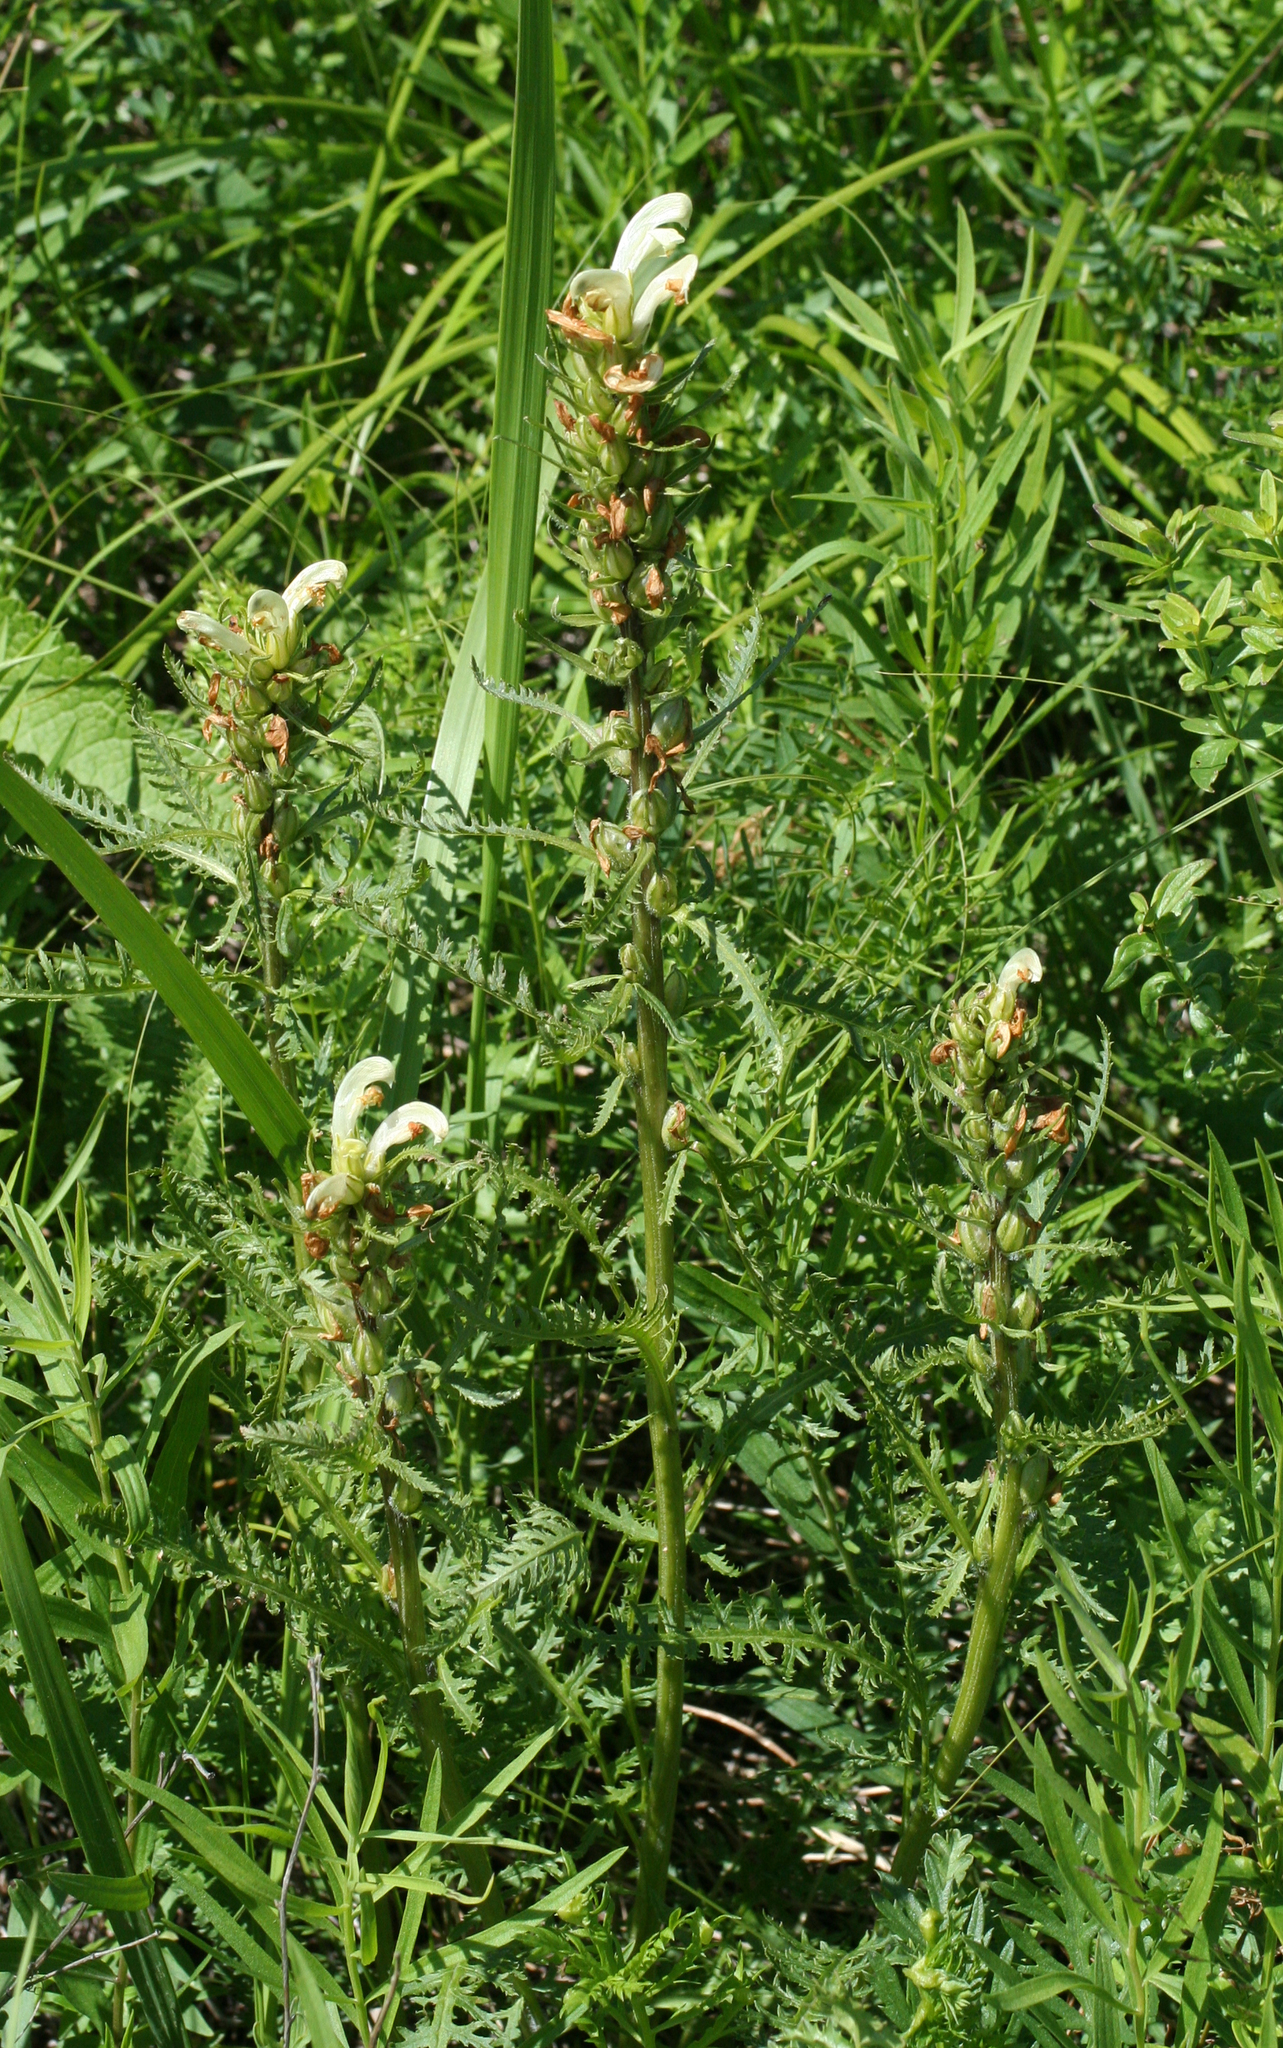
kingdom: Plantae
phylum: Tracheophyta
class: Magnoliopsida
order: Lamiales
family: Orobanchaceae
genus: Pedicularis
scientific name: Pedicularis sibirica
